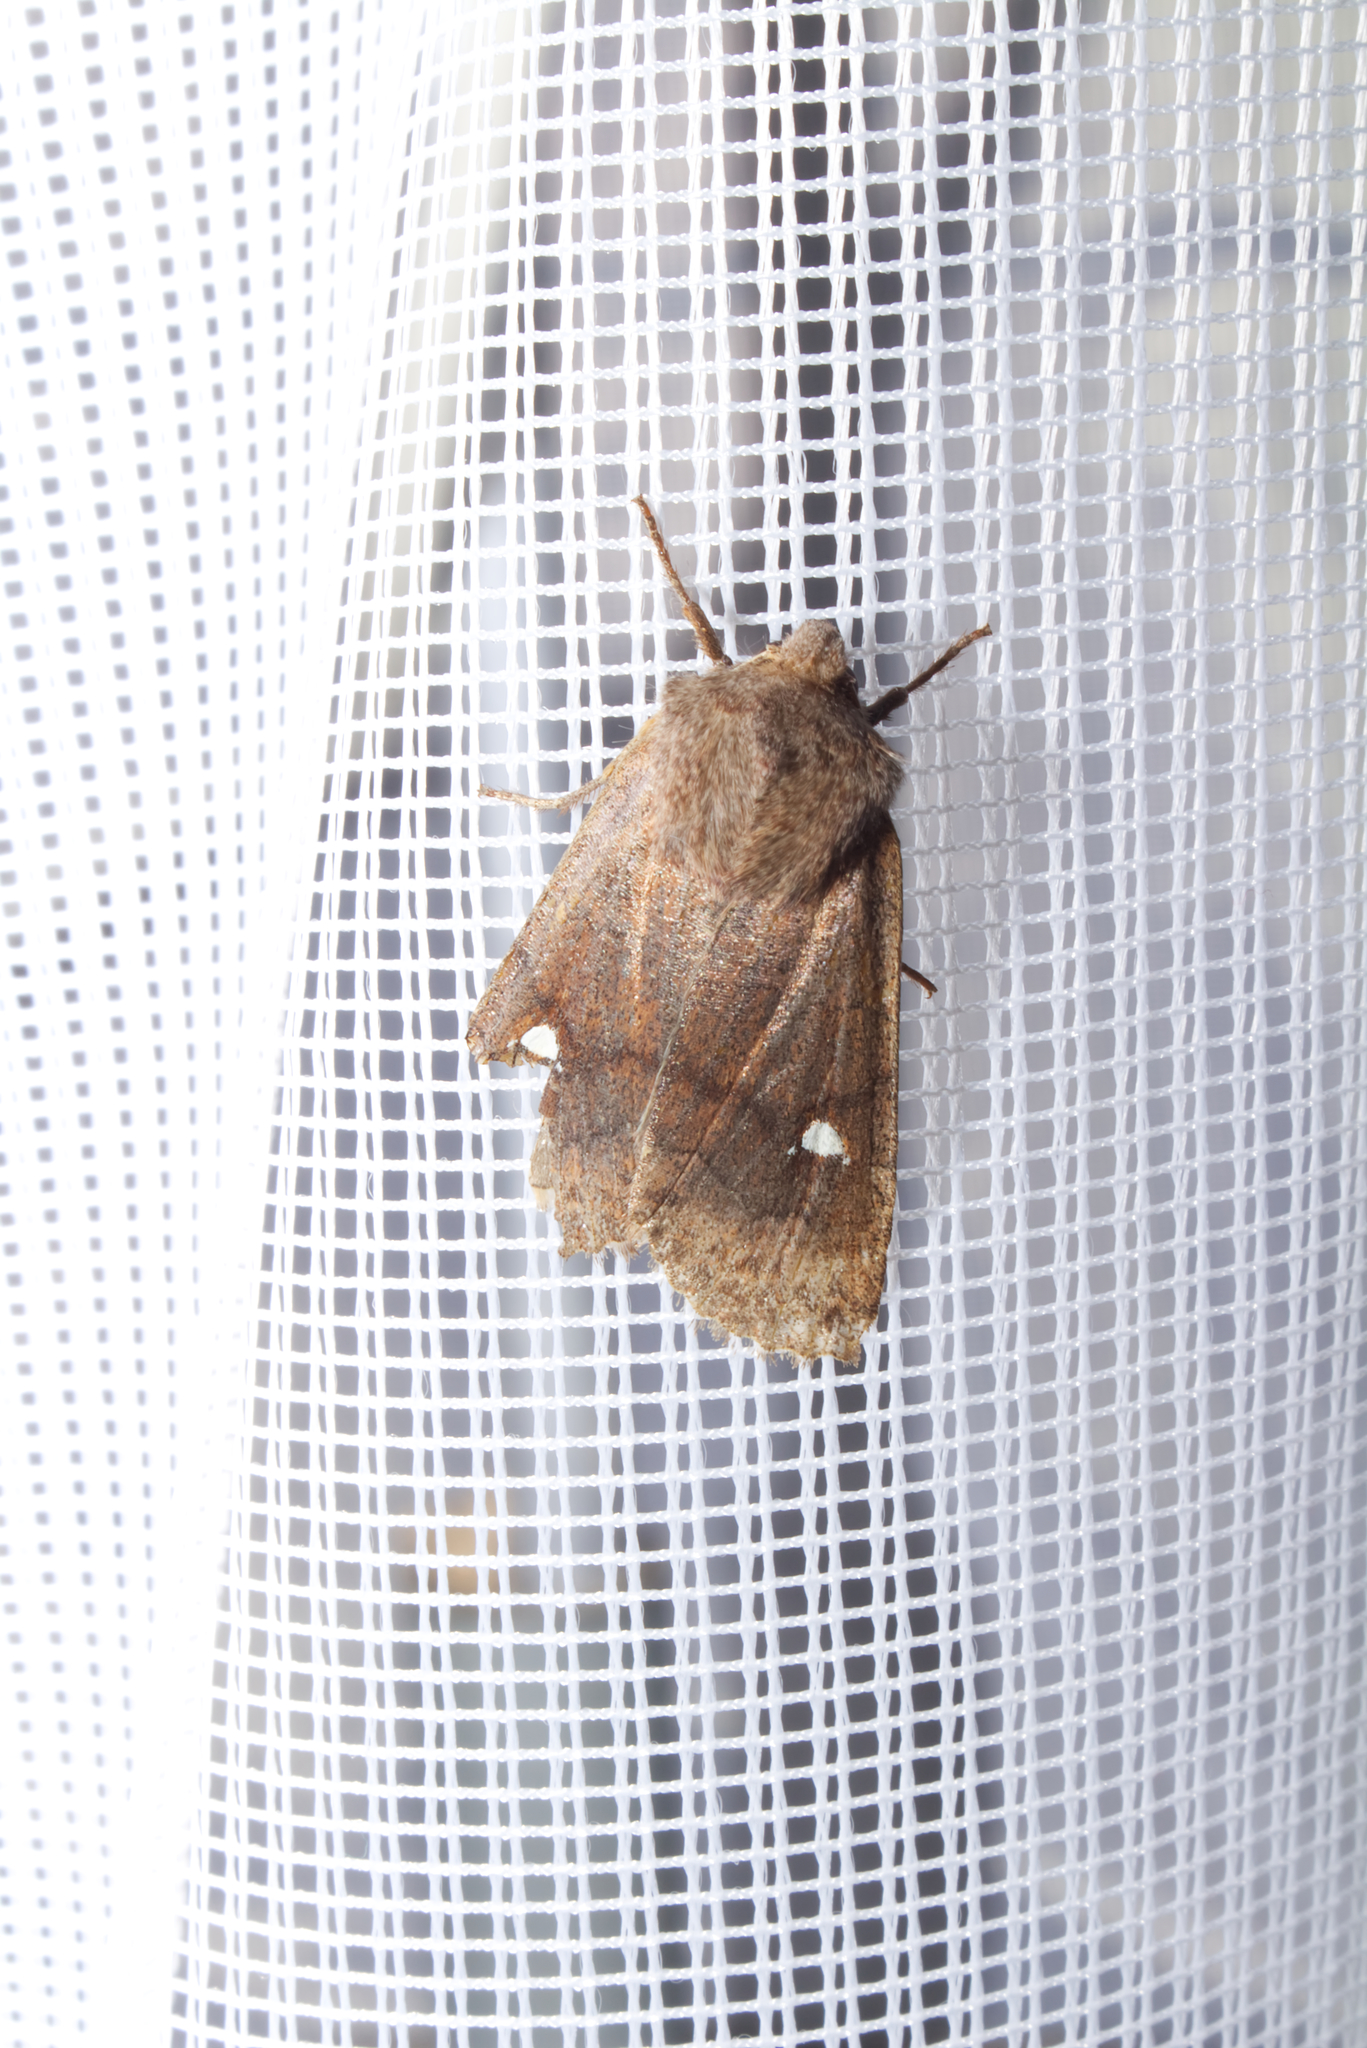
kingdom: Animalia
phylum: Arthropoda
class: Insecta
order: Lepidoptera
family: Noctuidae
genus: Eupsilia
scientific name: Eupsilia transversa
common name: Satellite
